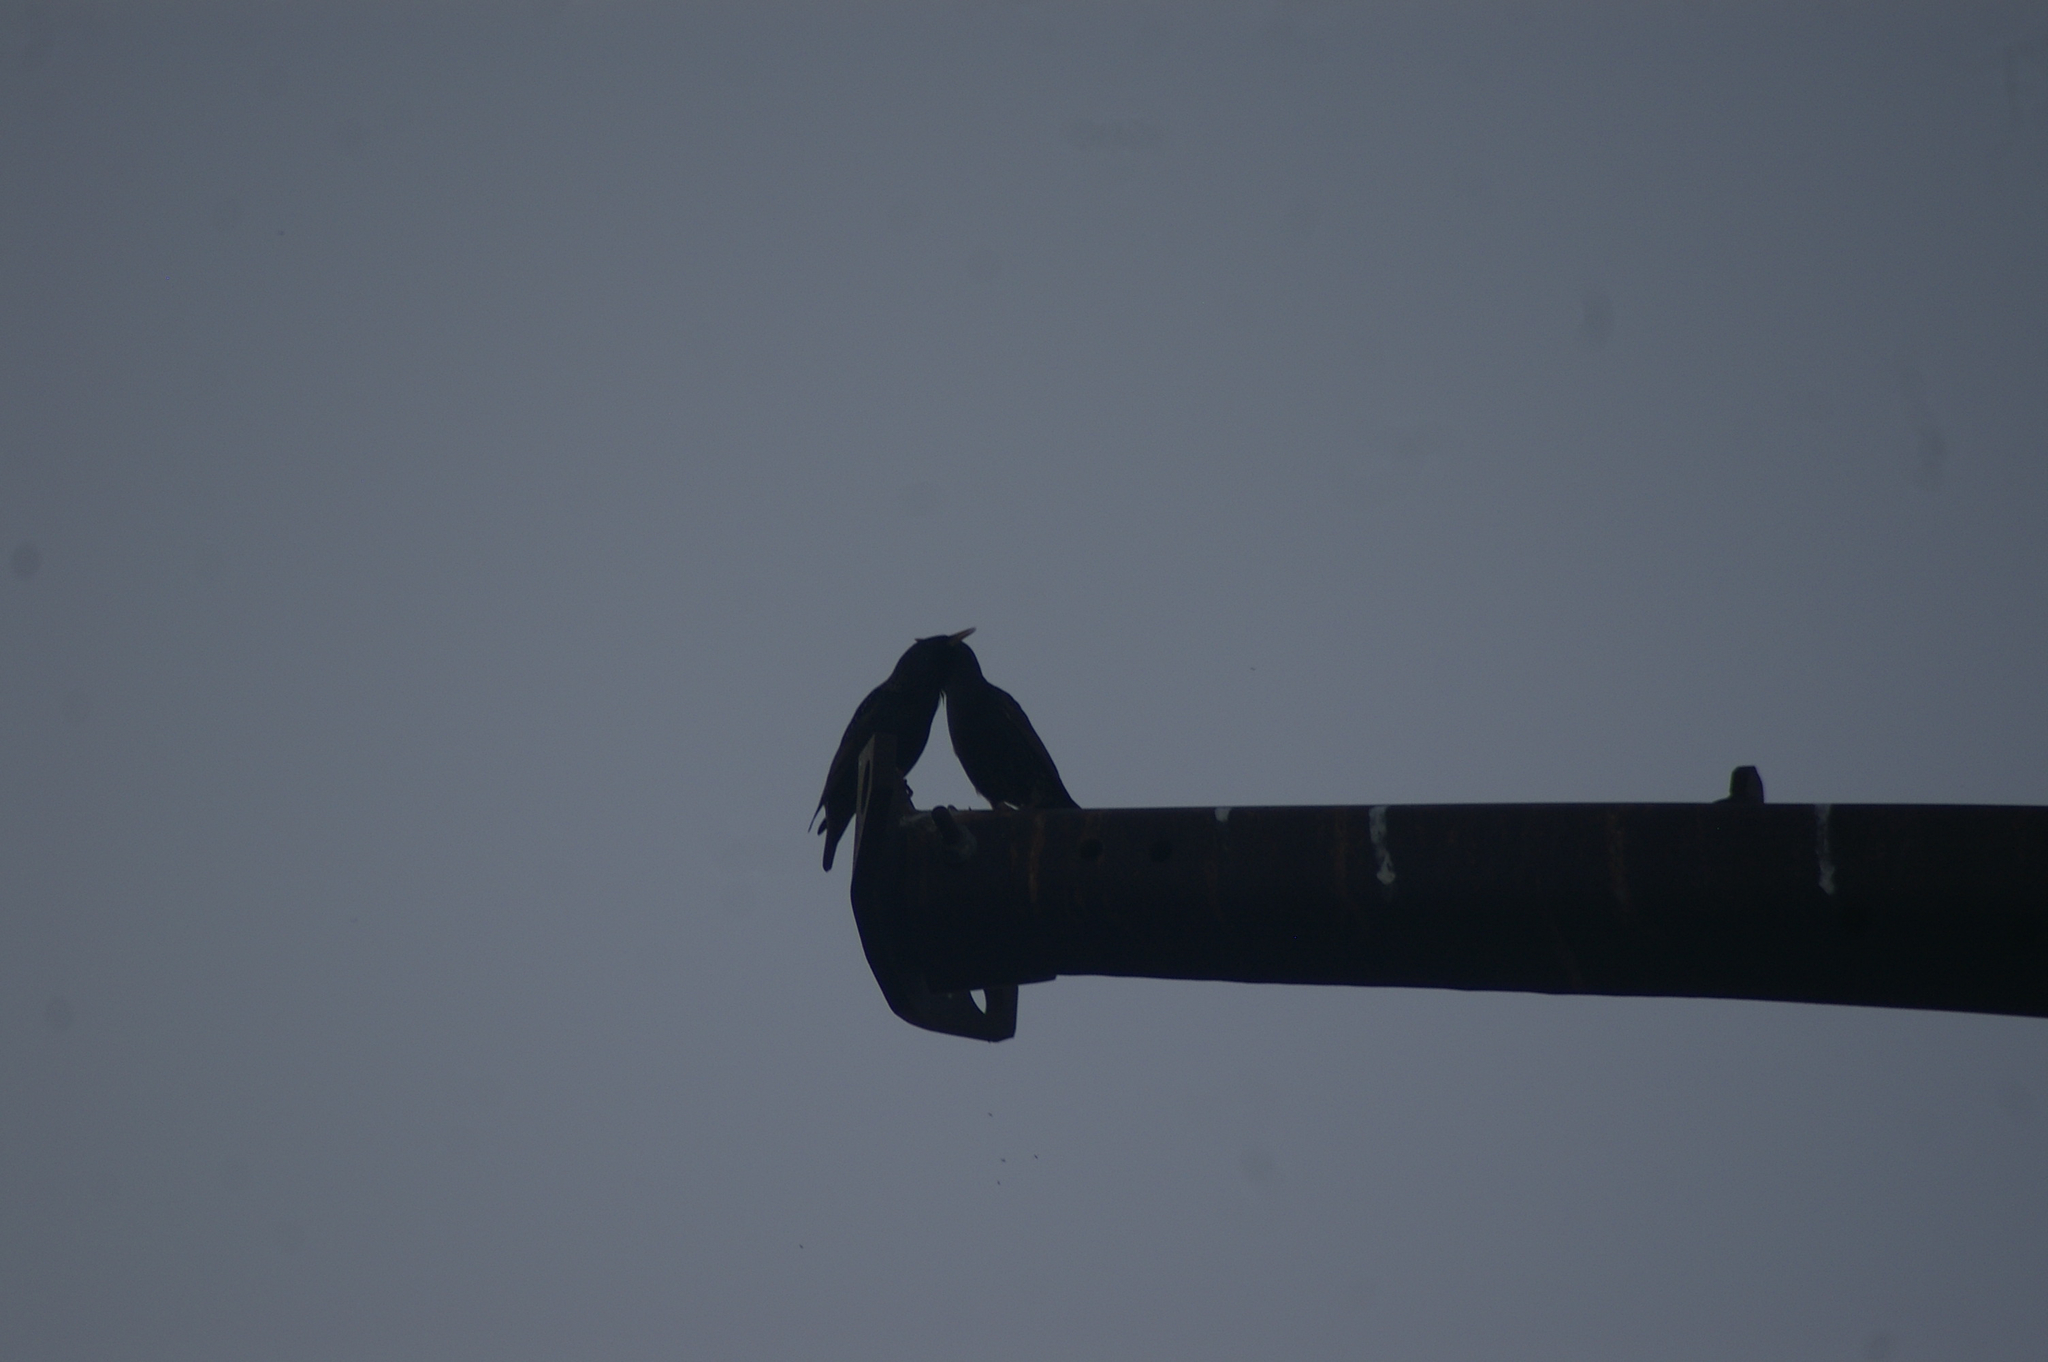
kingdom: Animalia
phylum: Chordata
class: Aves
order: Passeriformes
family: Sturnidae
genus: Sturnus
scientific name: Sturnus vulgaris
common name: Common starling
